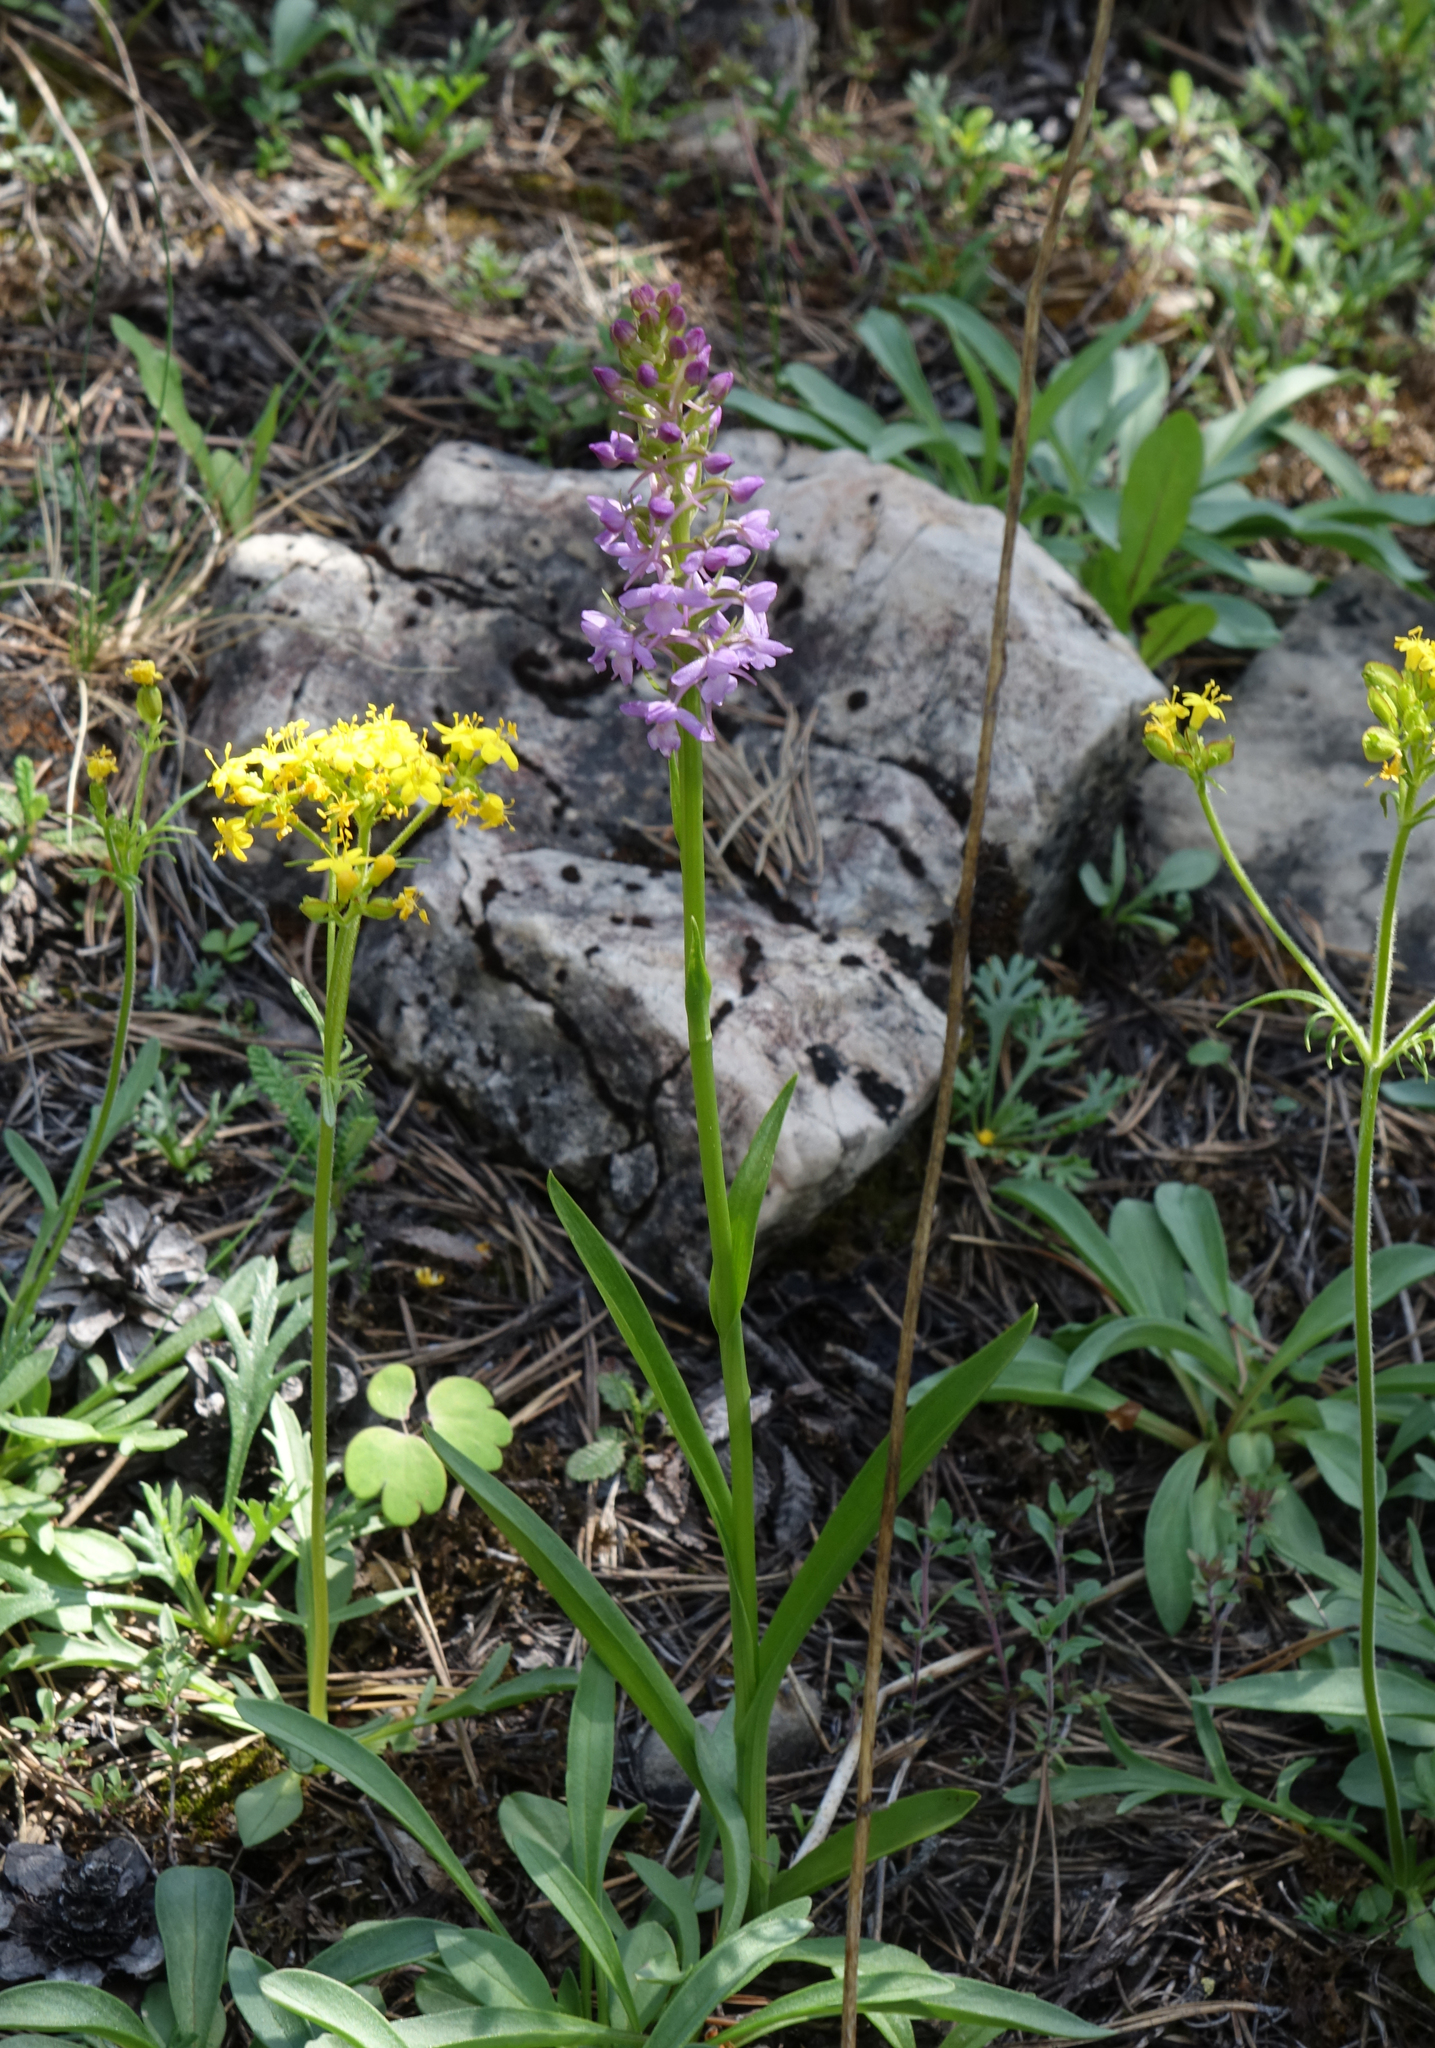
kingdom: Plantae
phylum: Tracheophyta
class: Liliopsida
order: Asparagales
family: Orchidaceae
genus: Gymnadenia
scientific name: Gymnadenia conopsea
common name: Fragrant orchid
